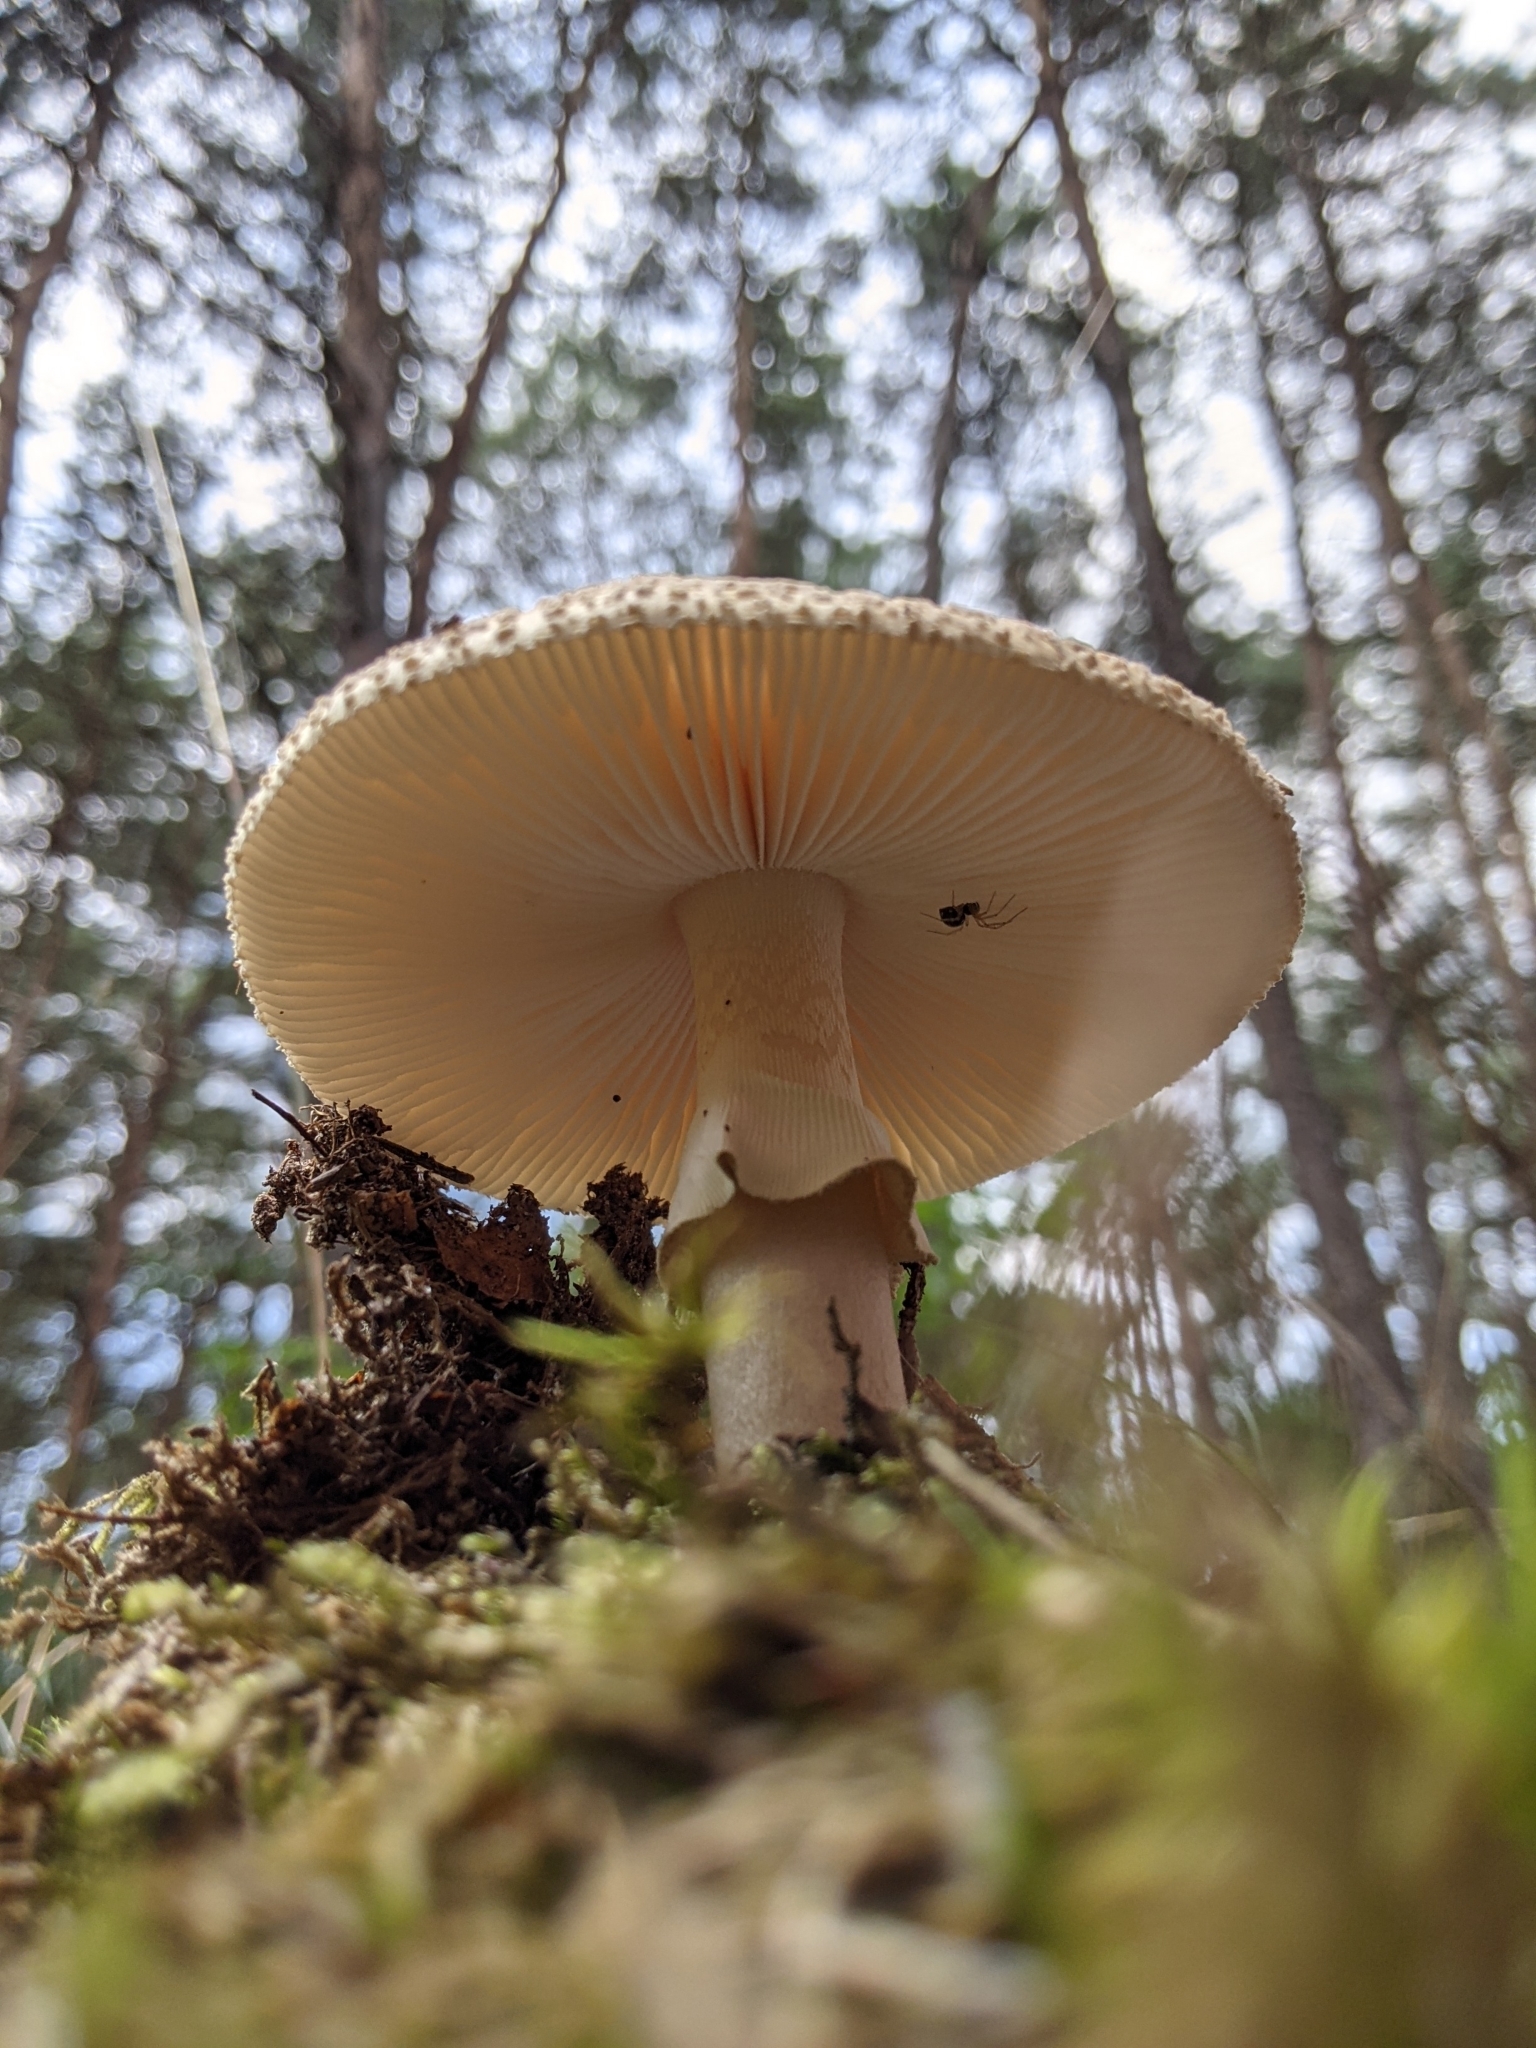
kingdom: Fungi
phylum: Basidiomycota
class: Agaricomycetes
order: Agaricales
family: Amanitaceae
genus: Amanita
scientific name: Amanita rubescens
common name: Blusher
